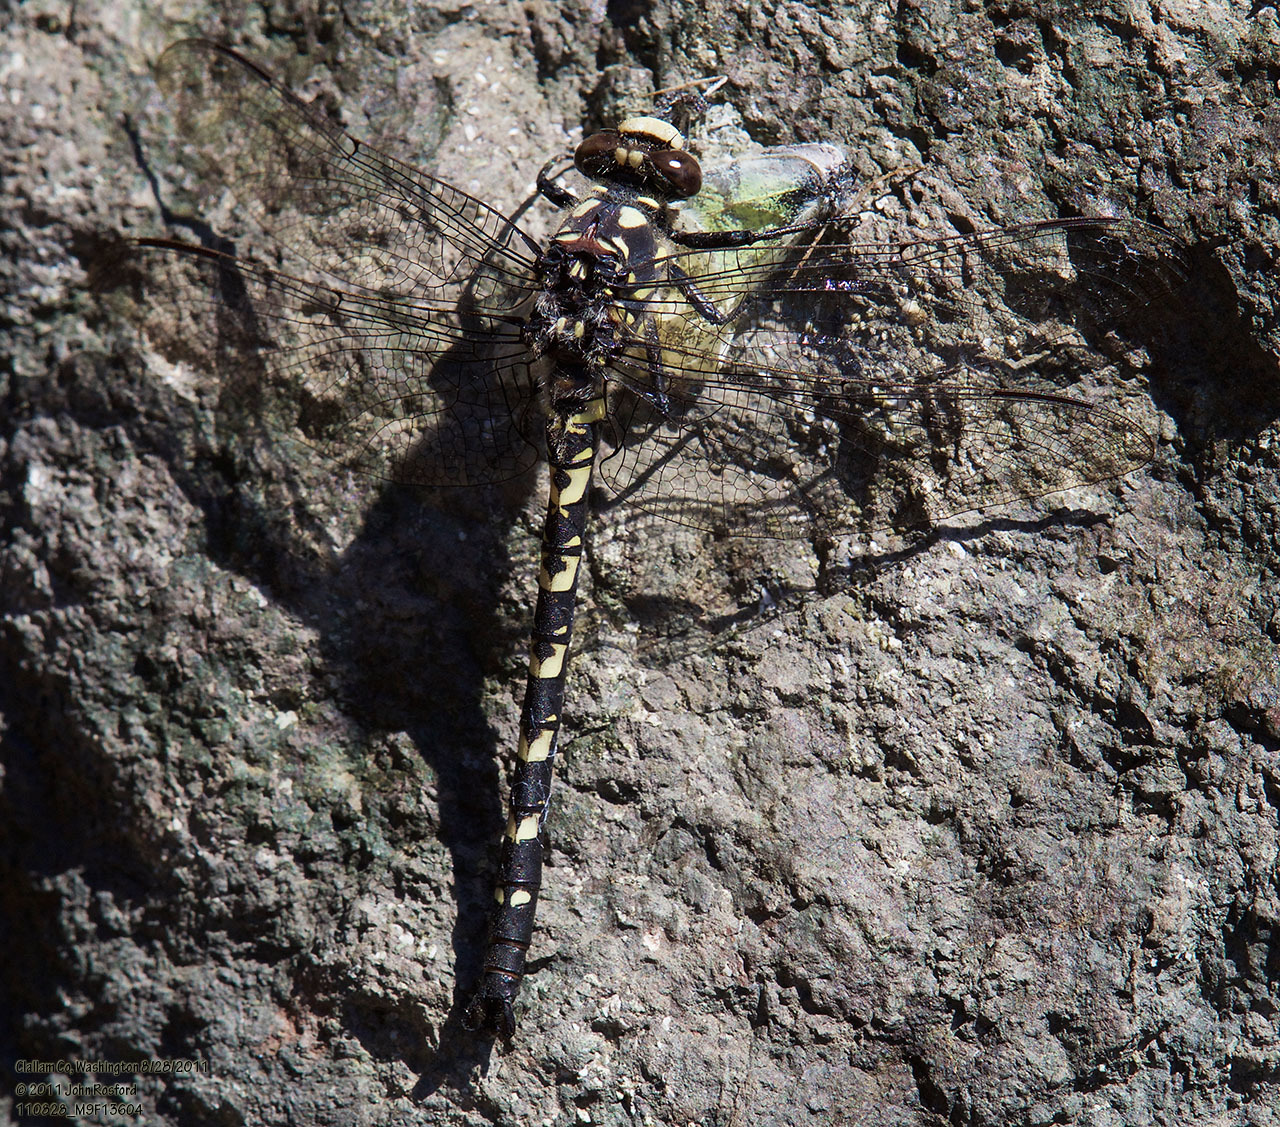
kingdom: Animalia
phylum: Arthropoda
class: Insecta
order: Odonata
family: Petaluridae
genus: Tanypteryx
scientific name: Tanypteryx hageni
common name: Black petaltail
